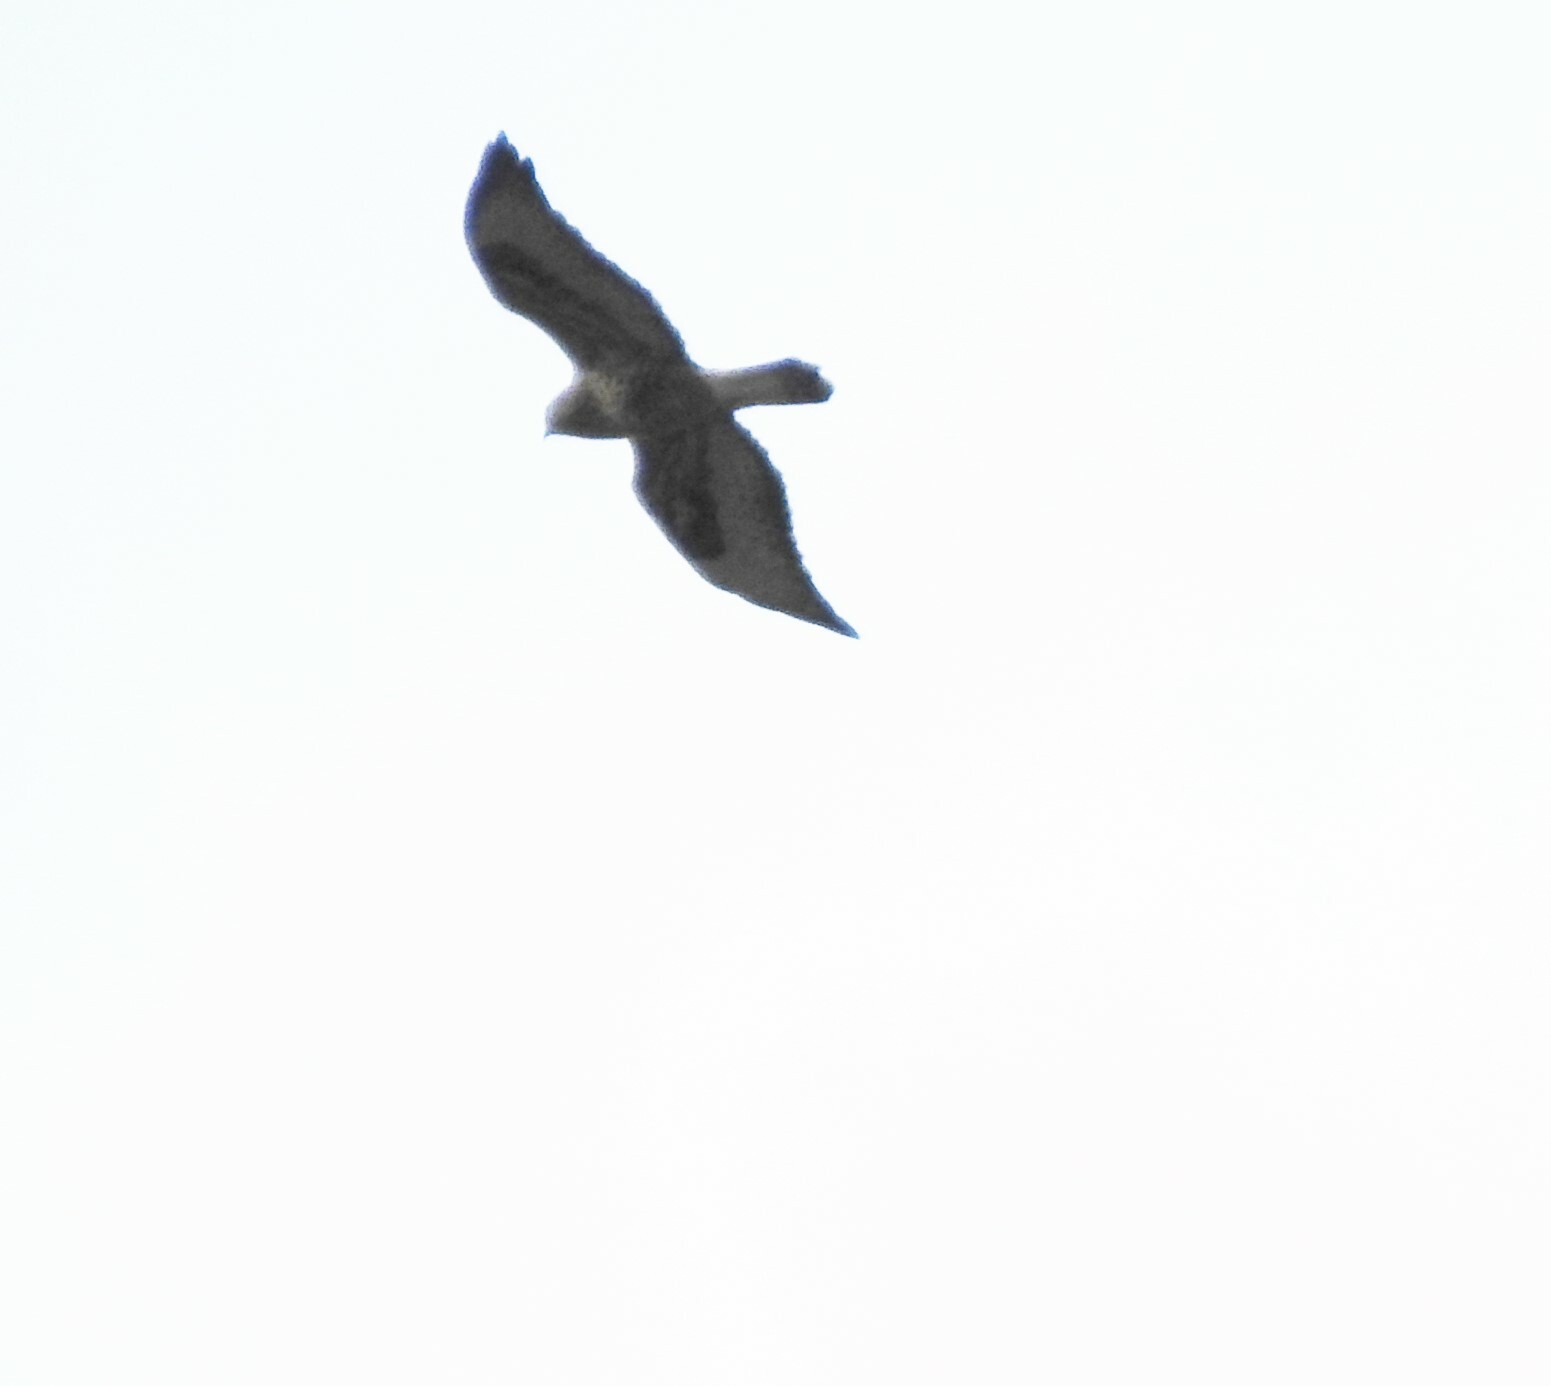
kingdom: Animalia
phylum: Chordata
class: Aves
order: Accipitriformes
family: Accipitridae
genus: Buteo
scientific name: Buteo lagopus
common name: Rough-legged buzzard
